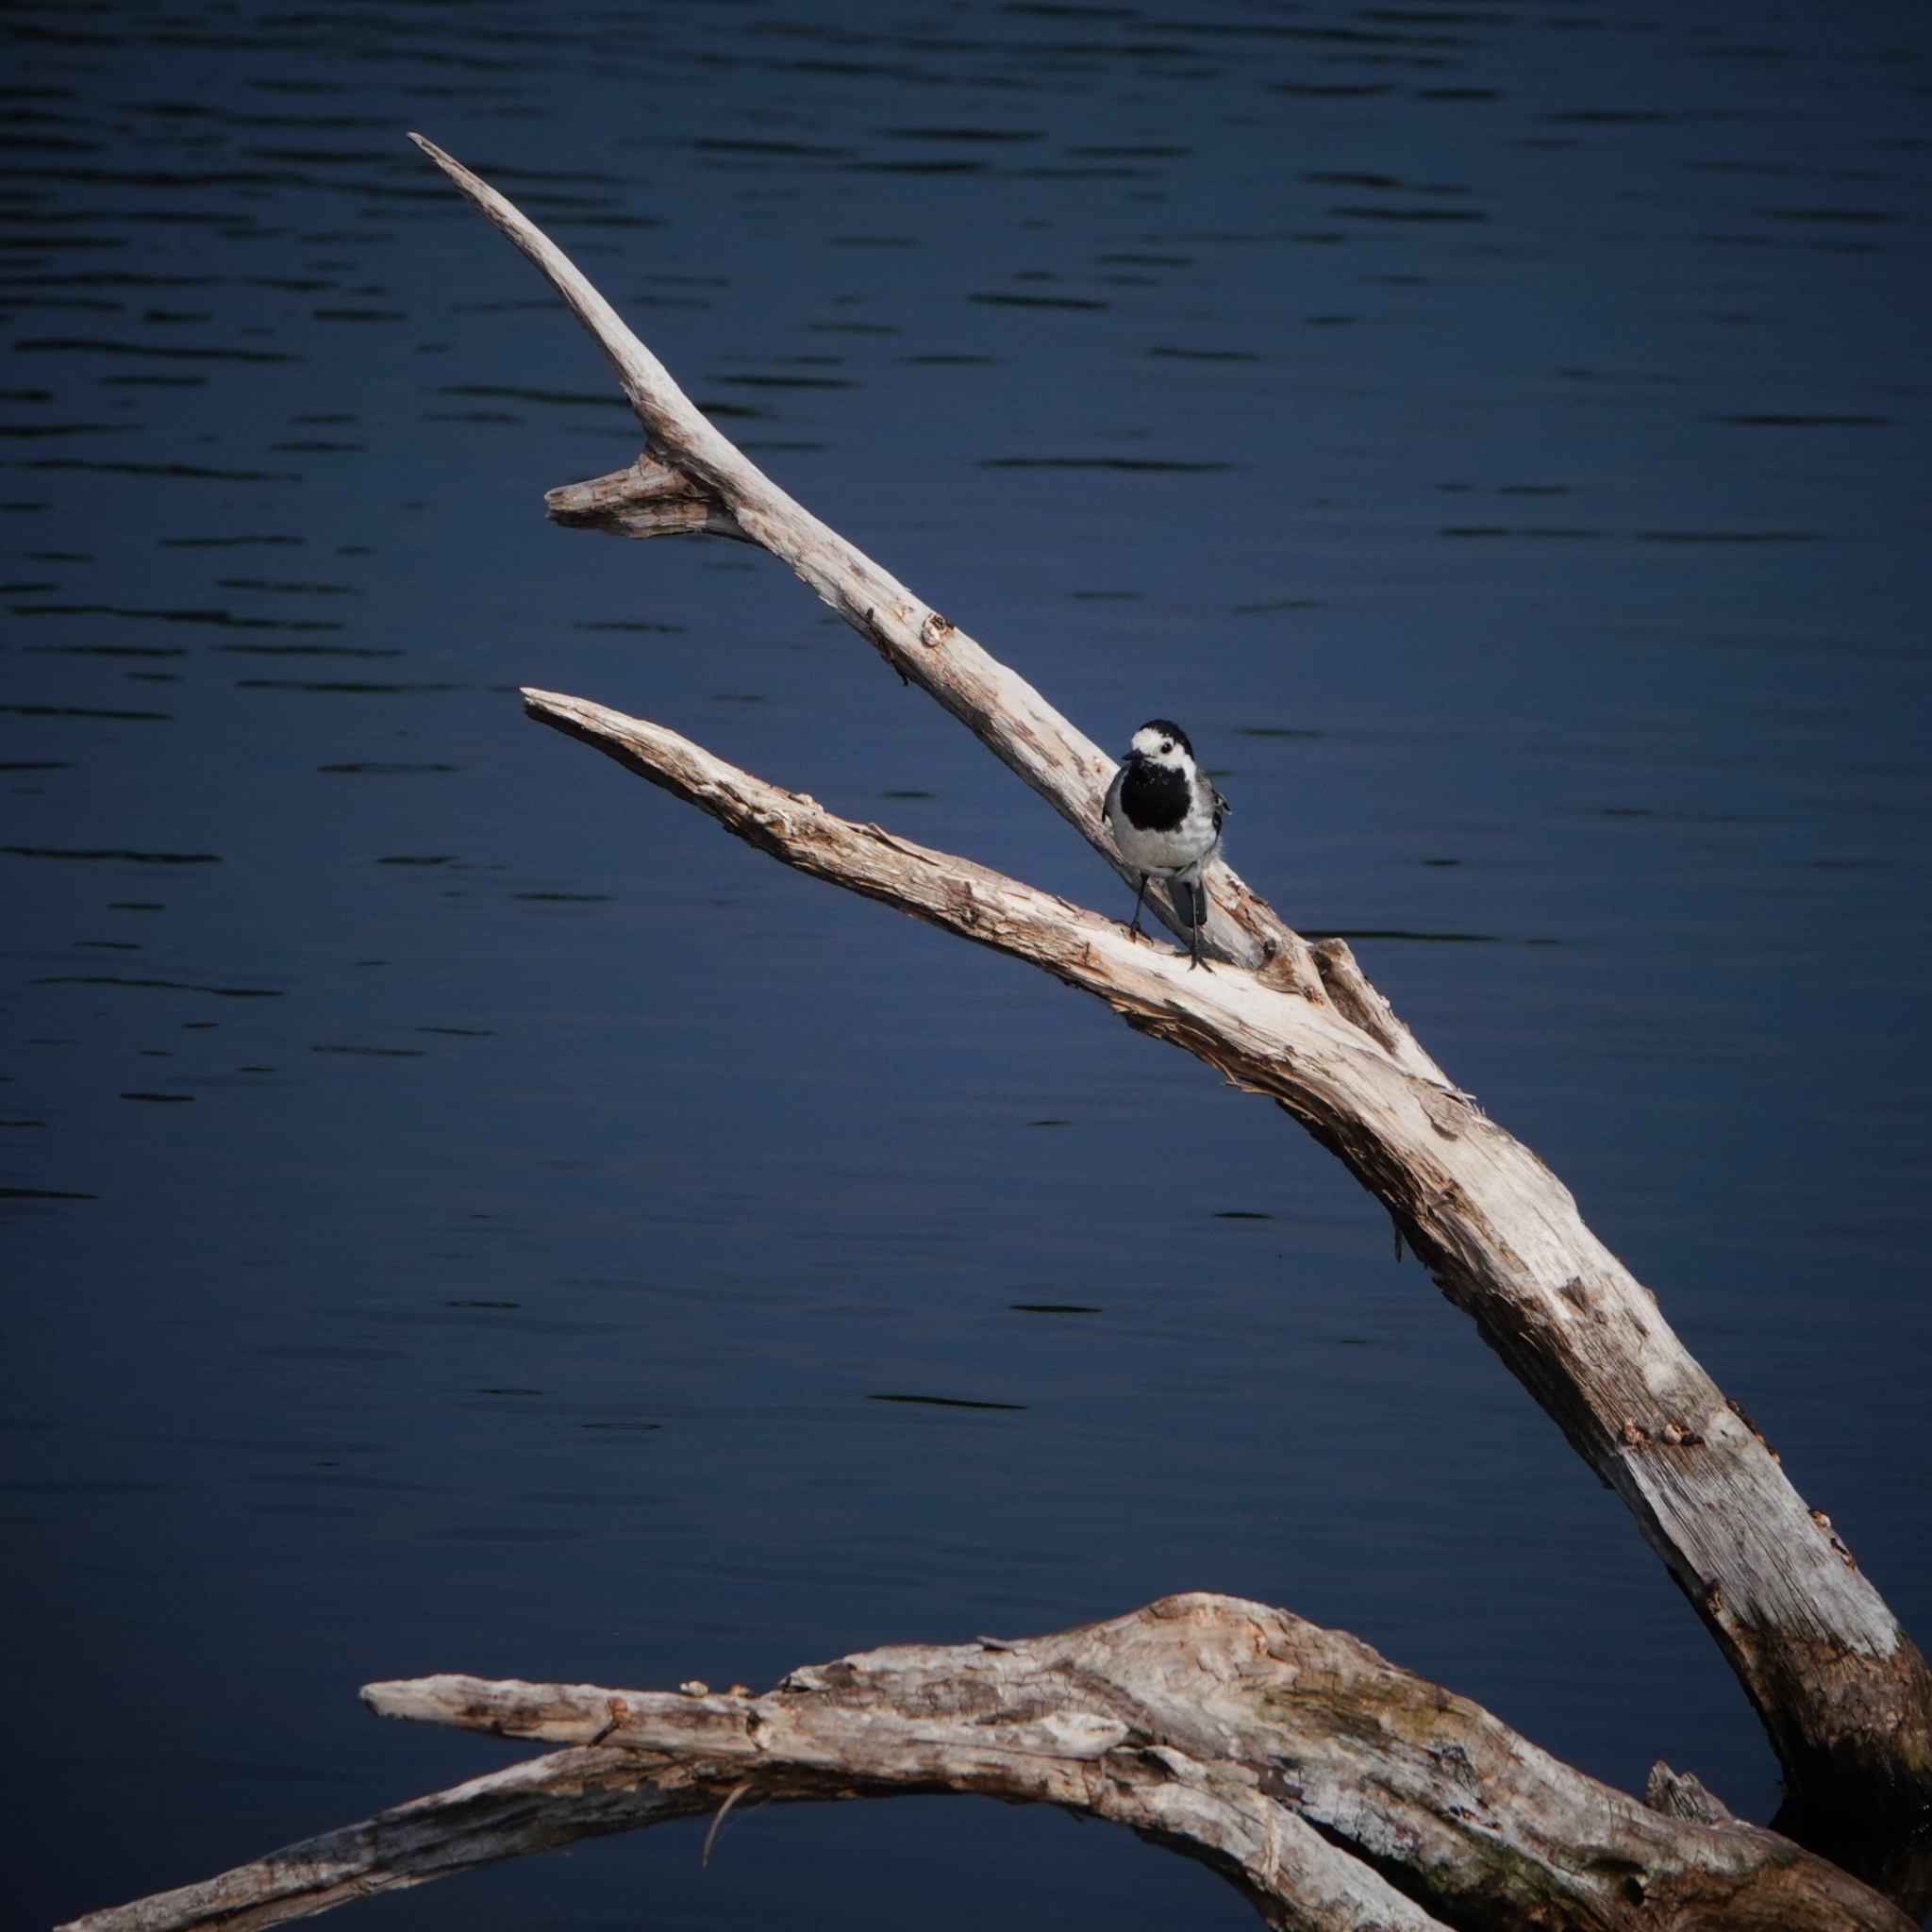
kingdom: Animalia
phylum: Chordata
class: Aves
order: Passeriformes
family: Motacillidae
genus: Motacilla
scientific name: Motacilla alba
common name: White wagtail
